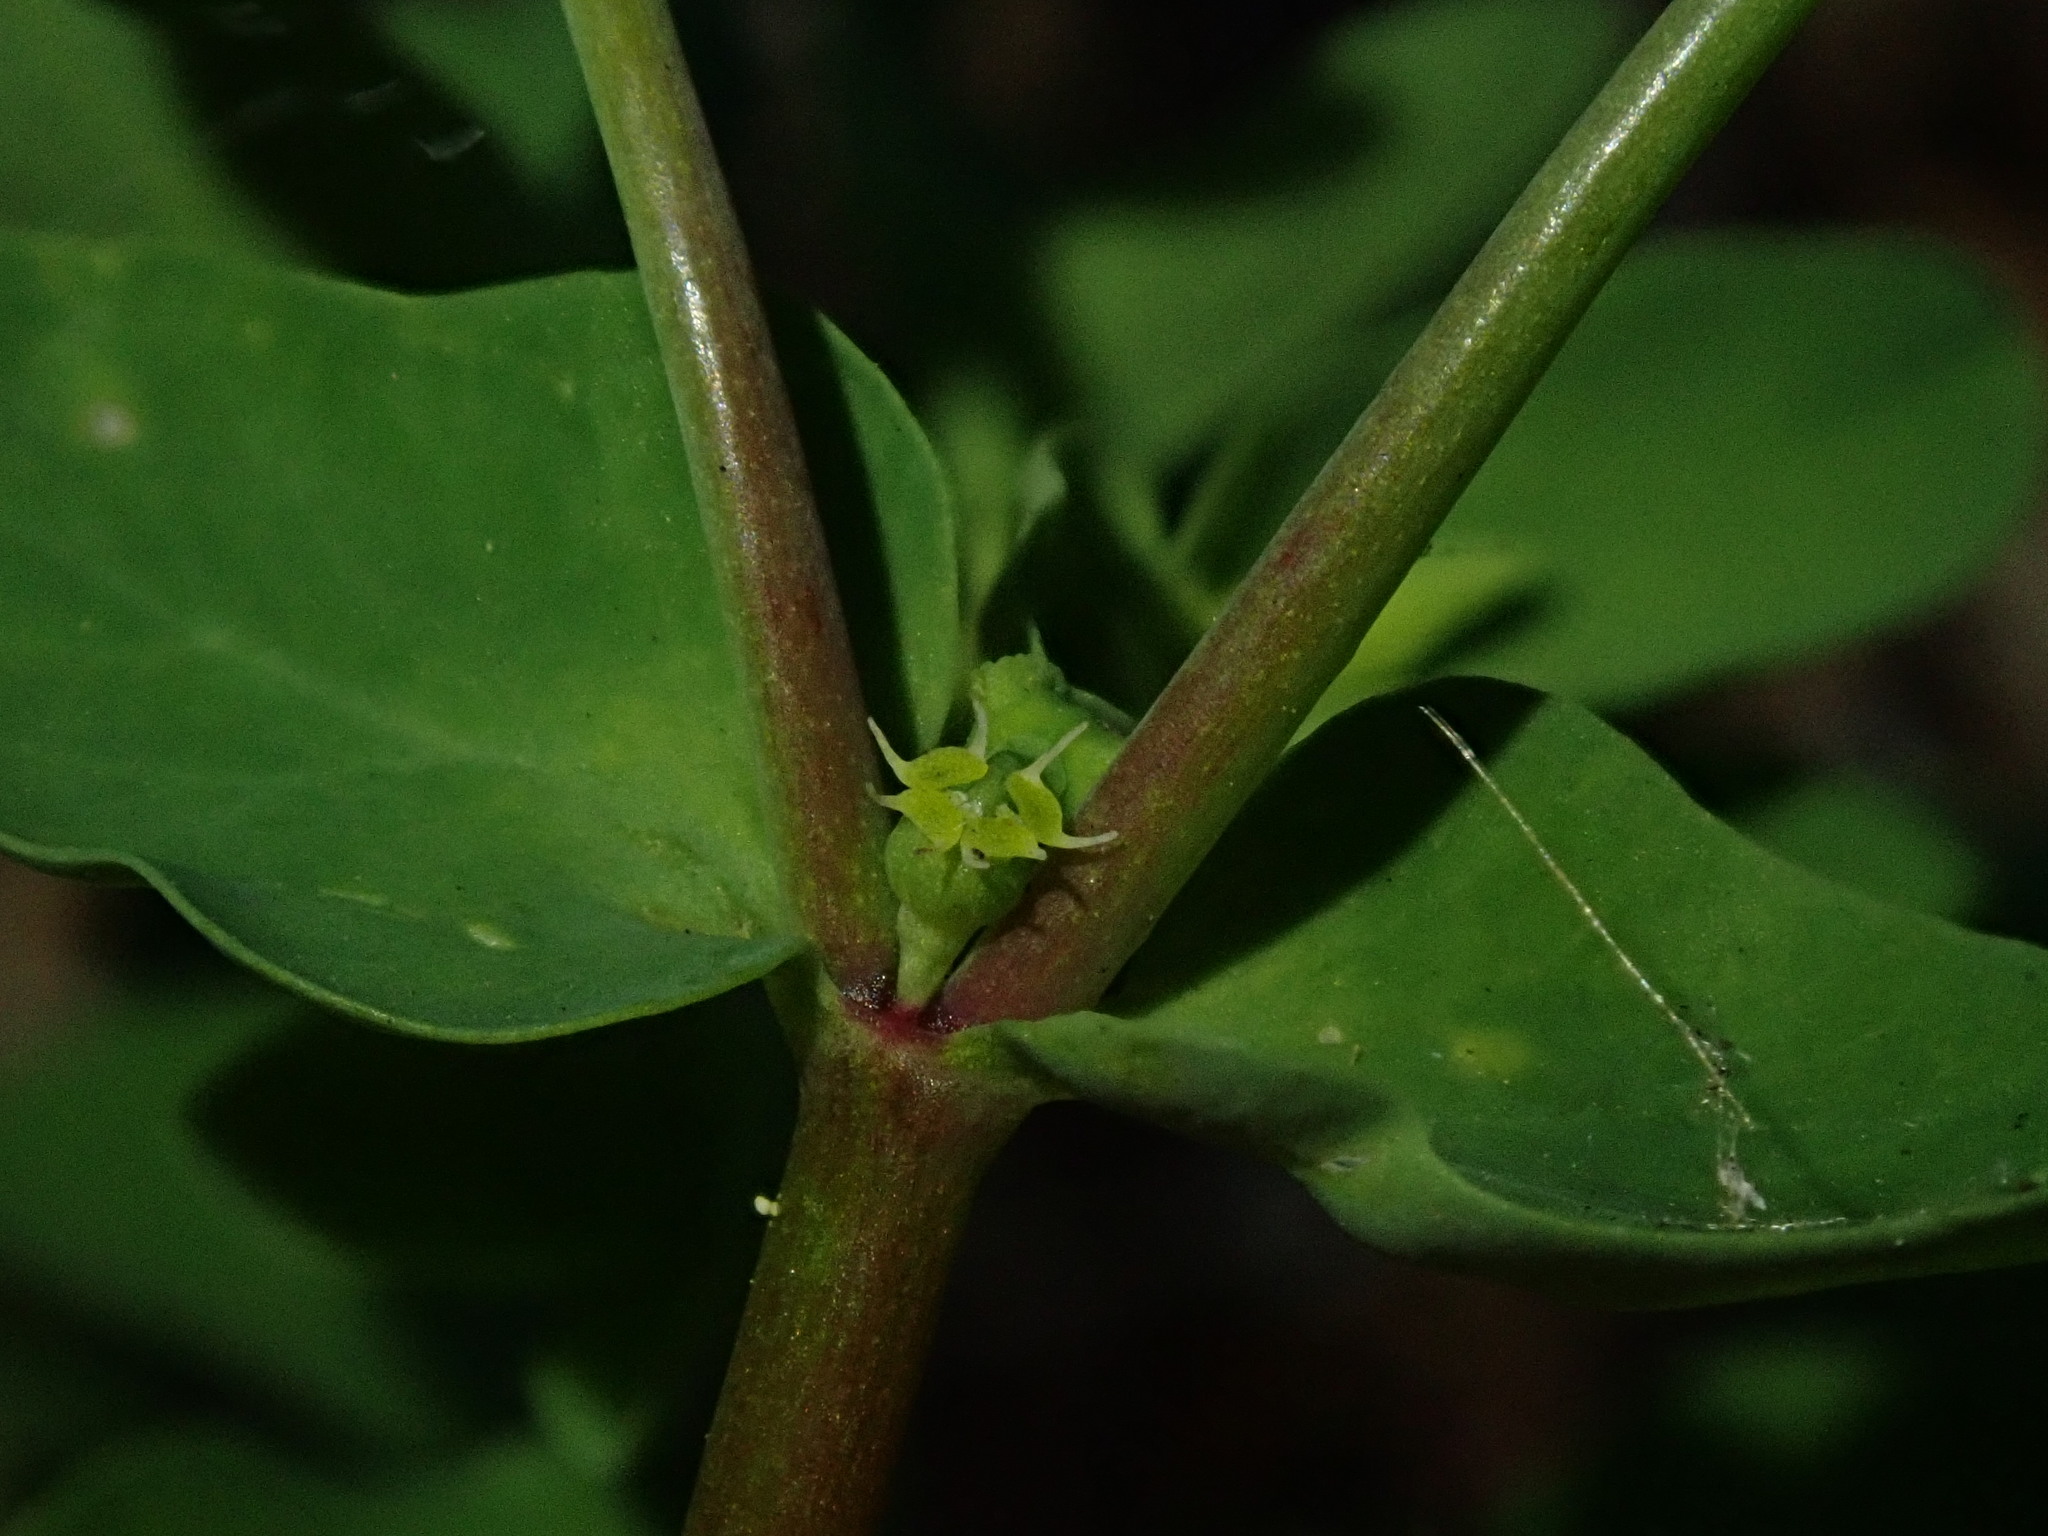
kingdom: Plantae
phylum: Tracheophyta
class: Magnoliopsida
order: Malpighiales
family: Euphorbiaceae
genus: Euphorbia
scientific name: Euphorbia peplus
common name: Petty spurge
